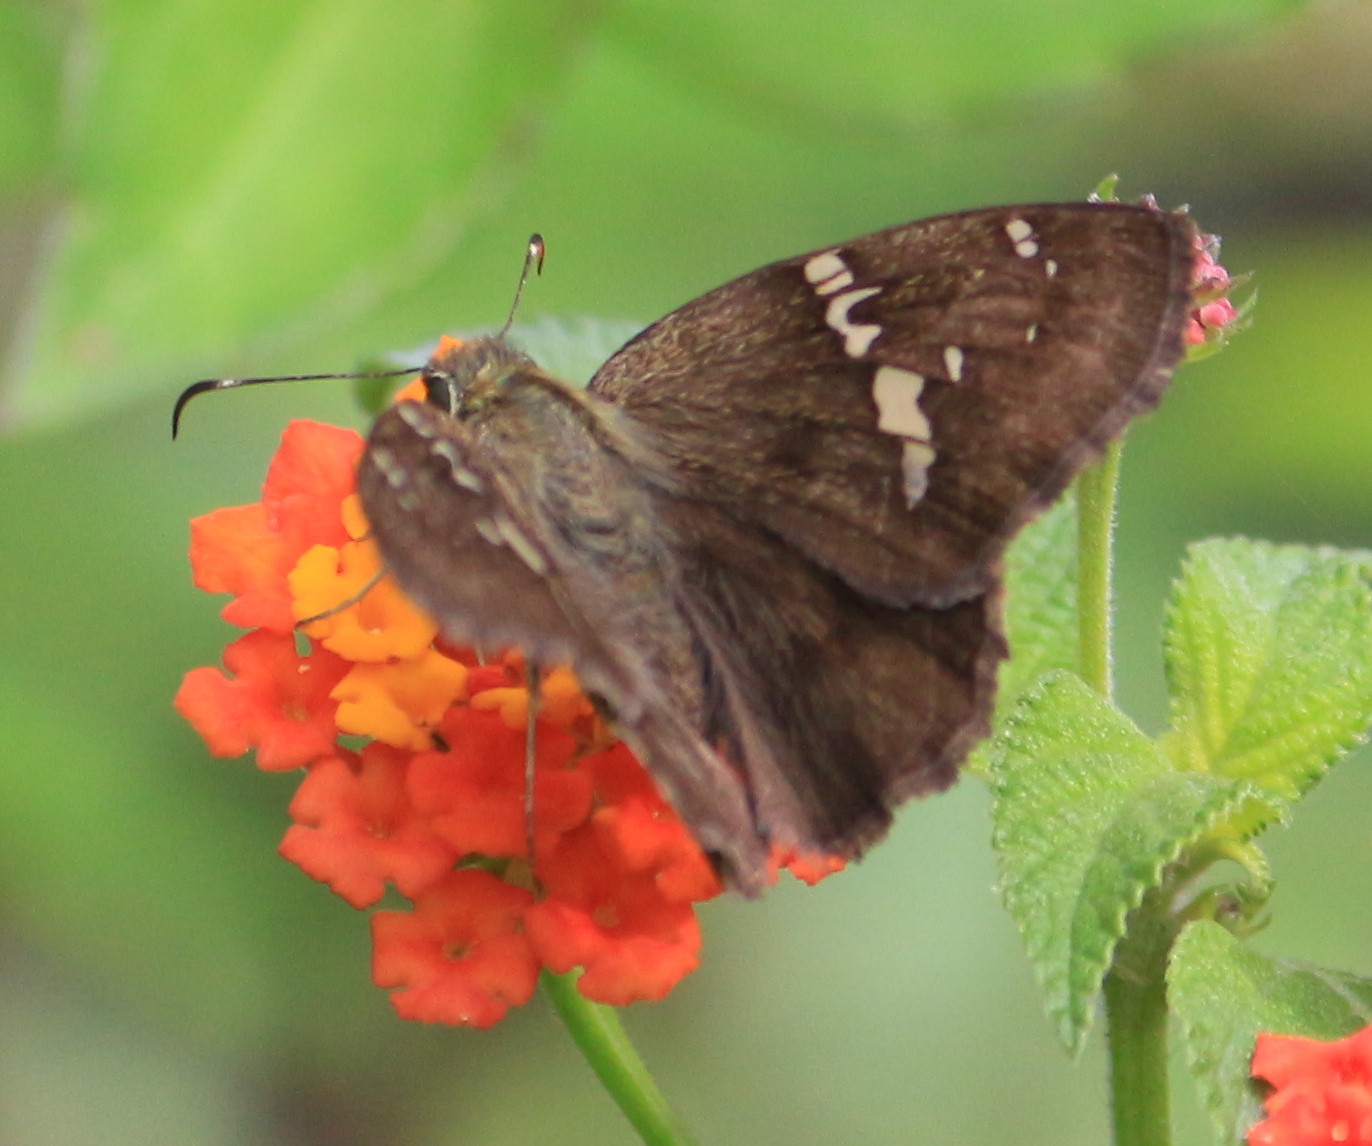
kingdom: Animalia
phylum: Arthropoda
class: Insecta
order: Lepidoptera
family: Hesperiidae
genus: Autochton
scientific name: Autochton potrillo
